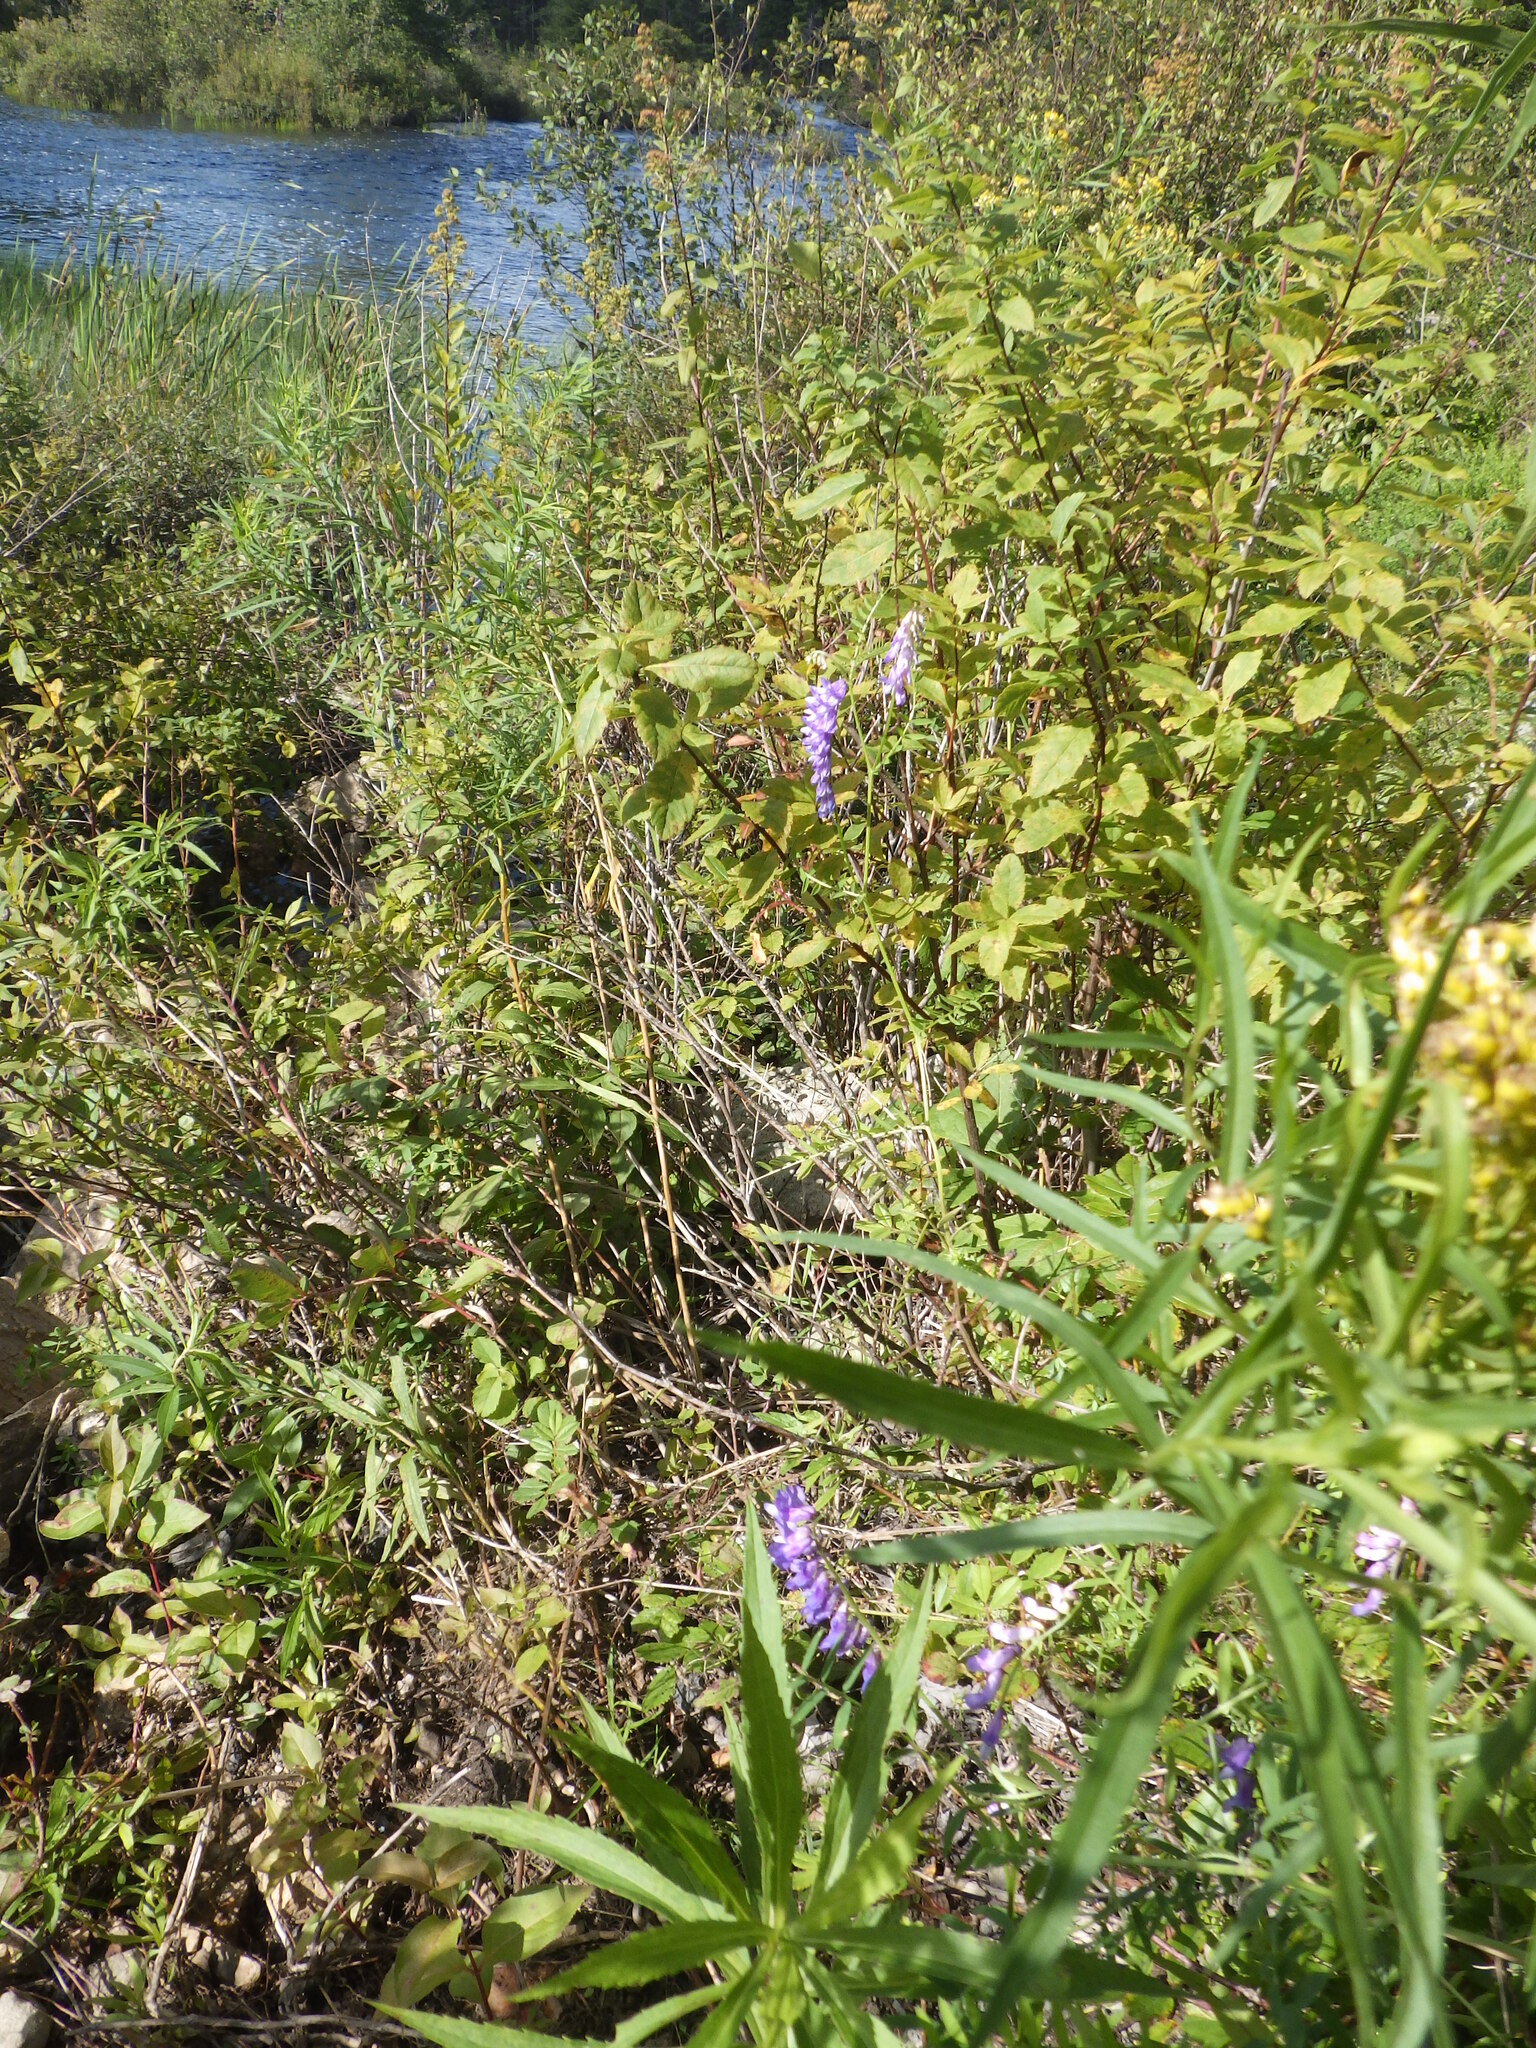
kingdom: Plantae
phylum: Tracheophyta
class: Magnoliopsida
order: Fabales
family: Fabaceae
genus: Vicia
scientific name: Vicia cracca
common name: Bird vetch
